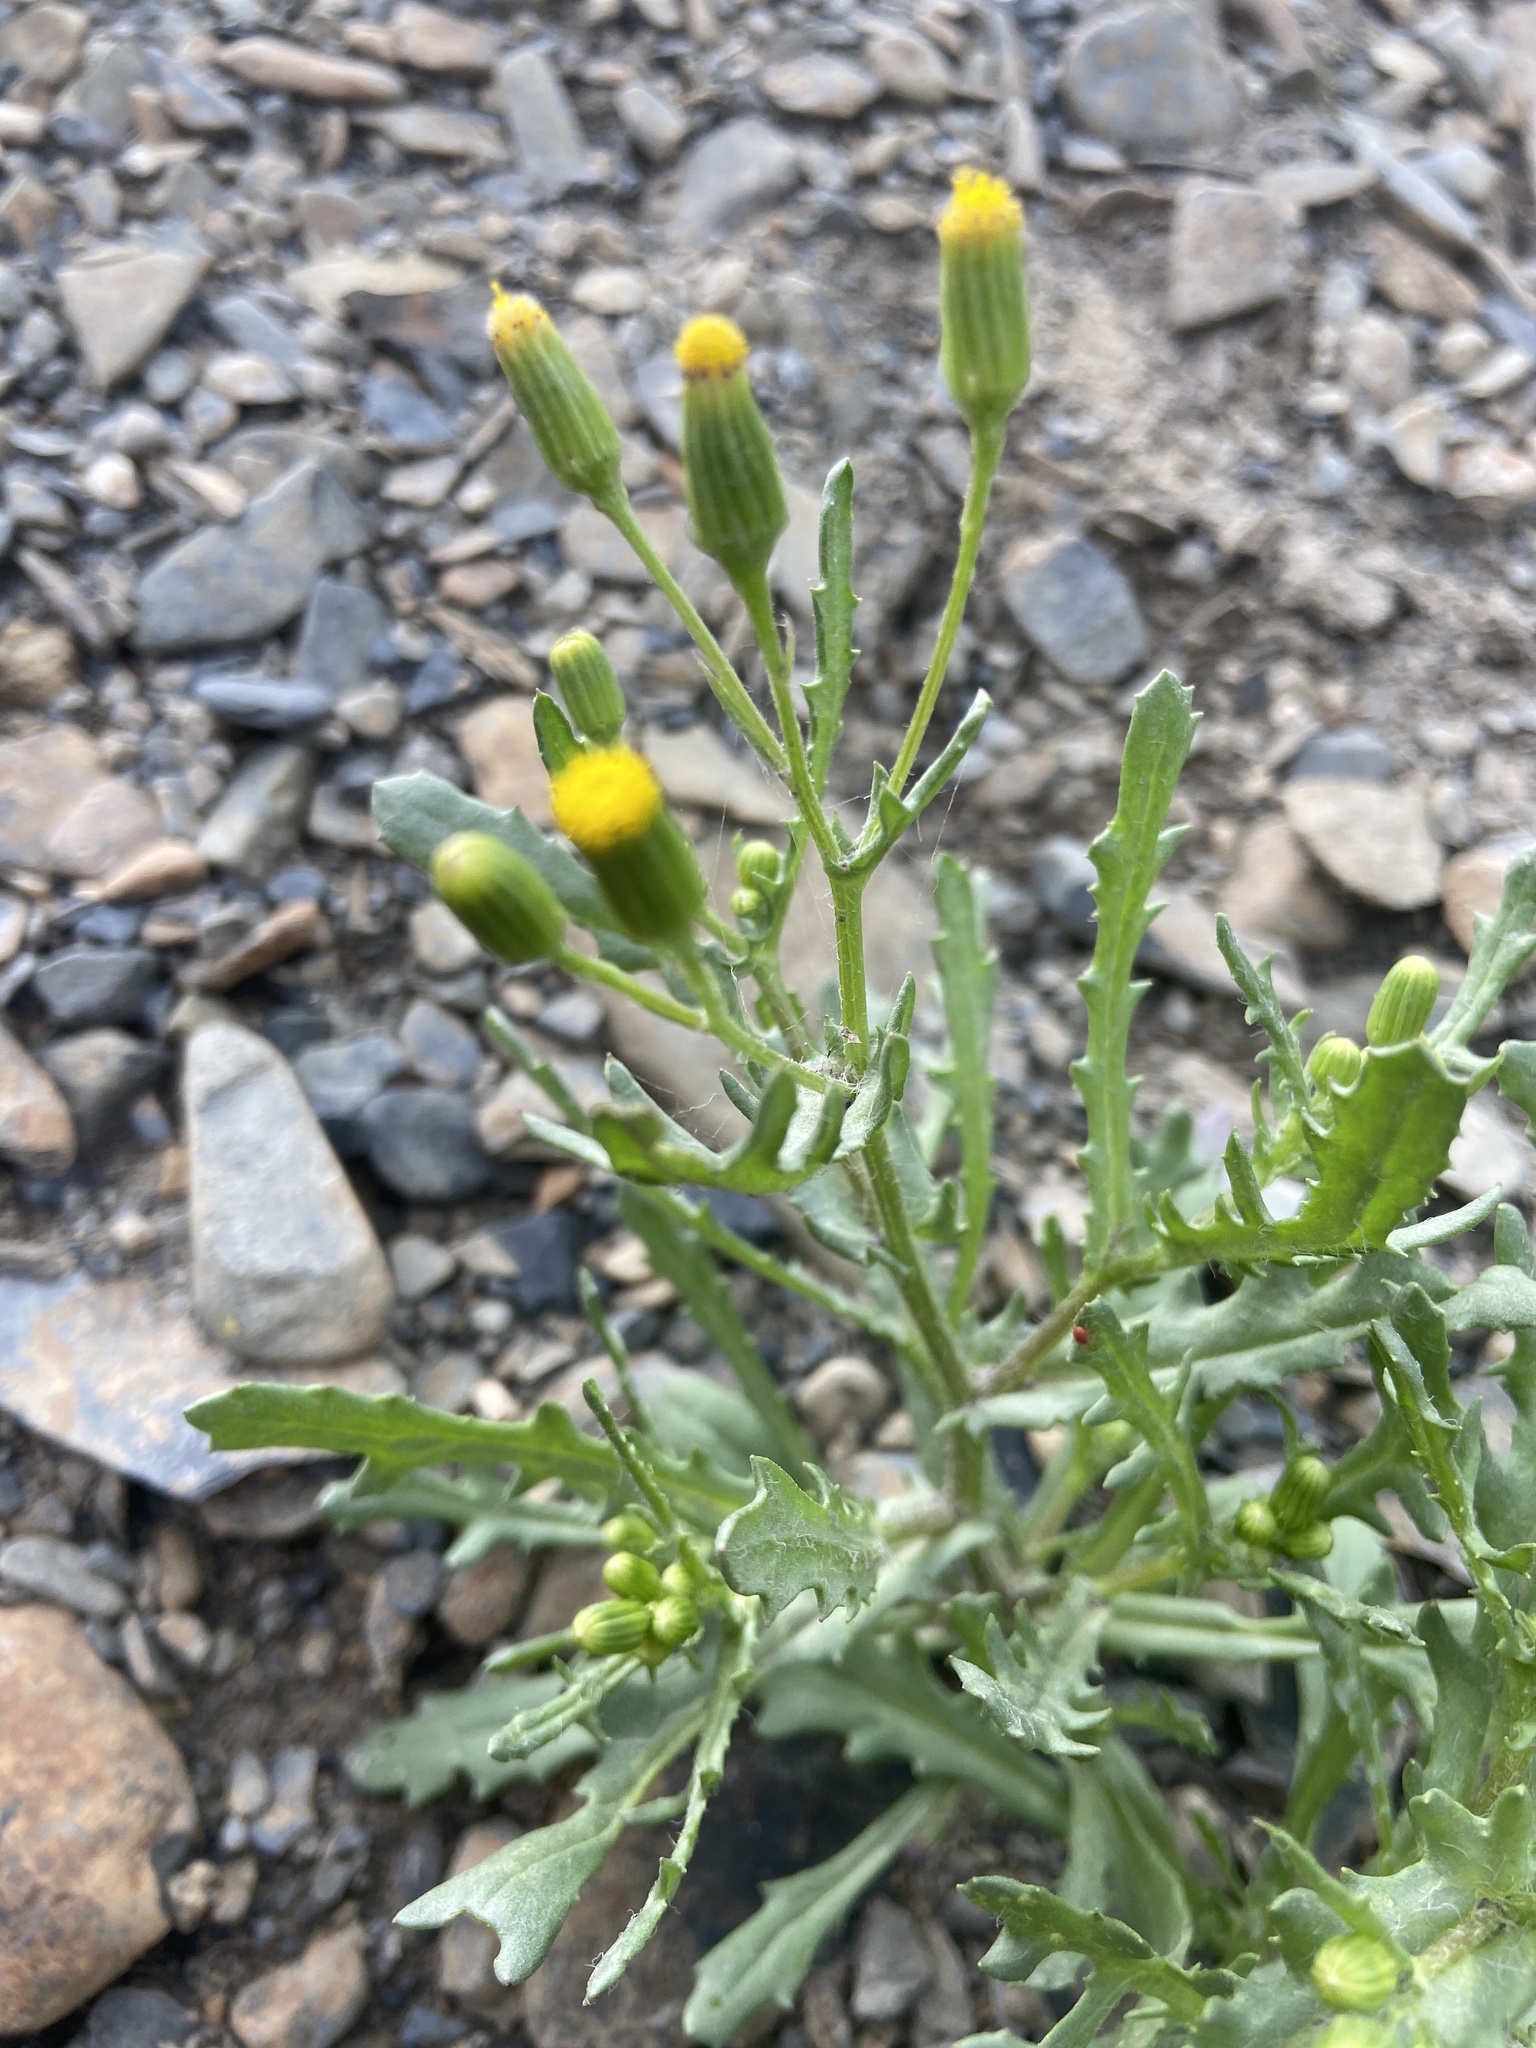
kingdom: Plantae
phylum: Tracheophyta
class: Magnoliopsida
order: Asterales
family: Asteraceae
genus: Senecio
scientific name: Senecio dubitabilis
